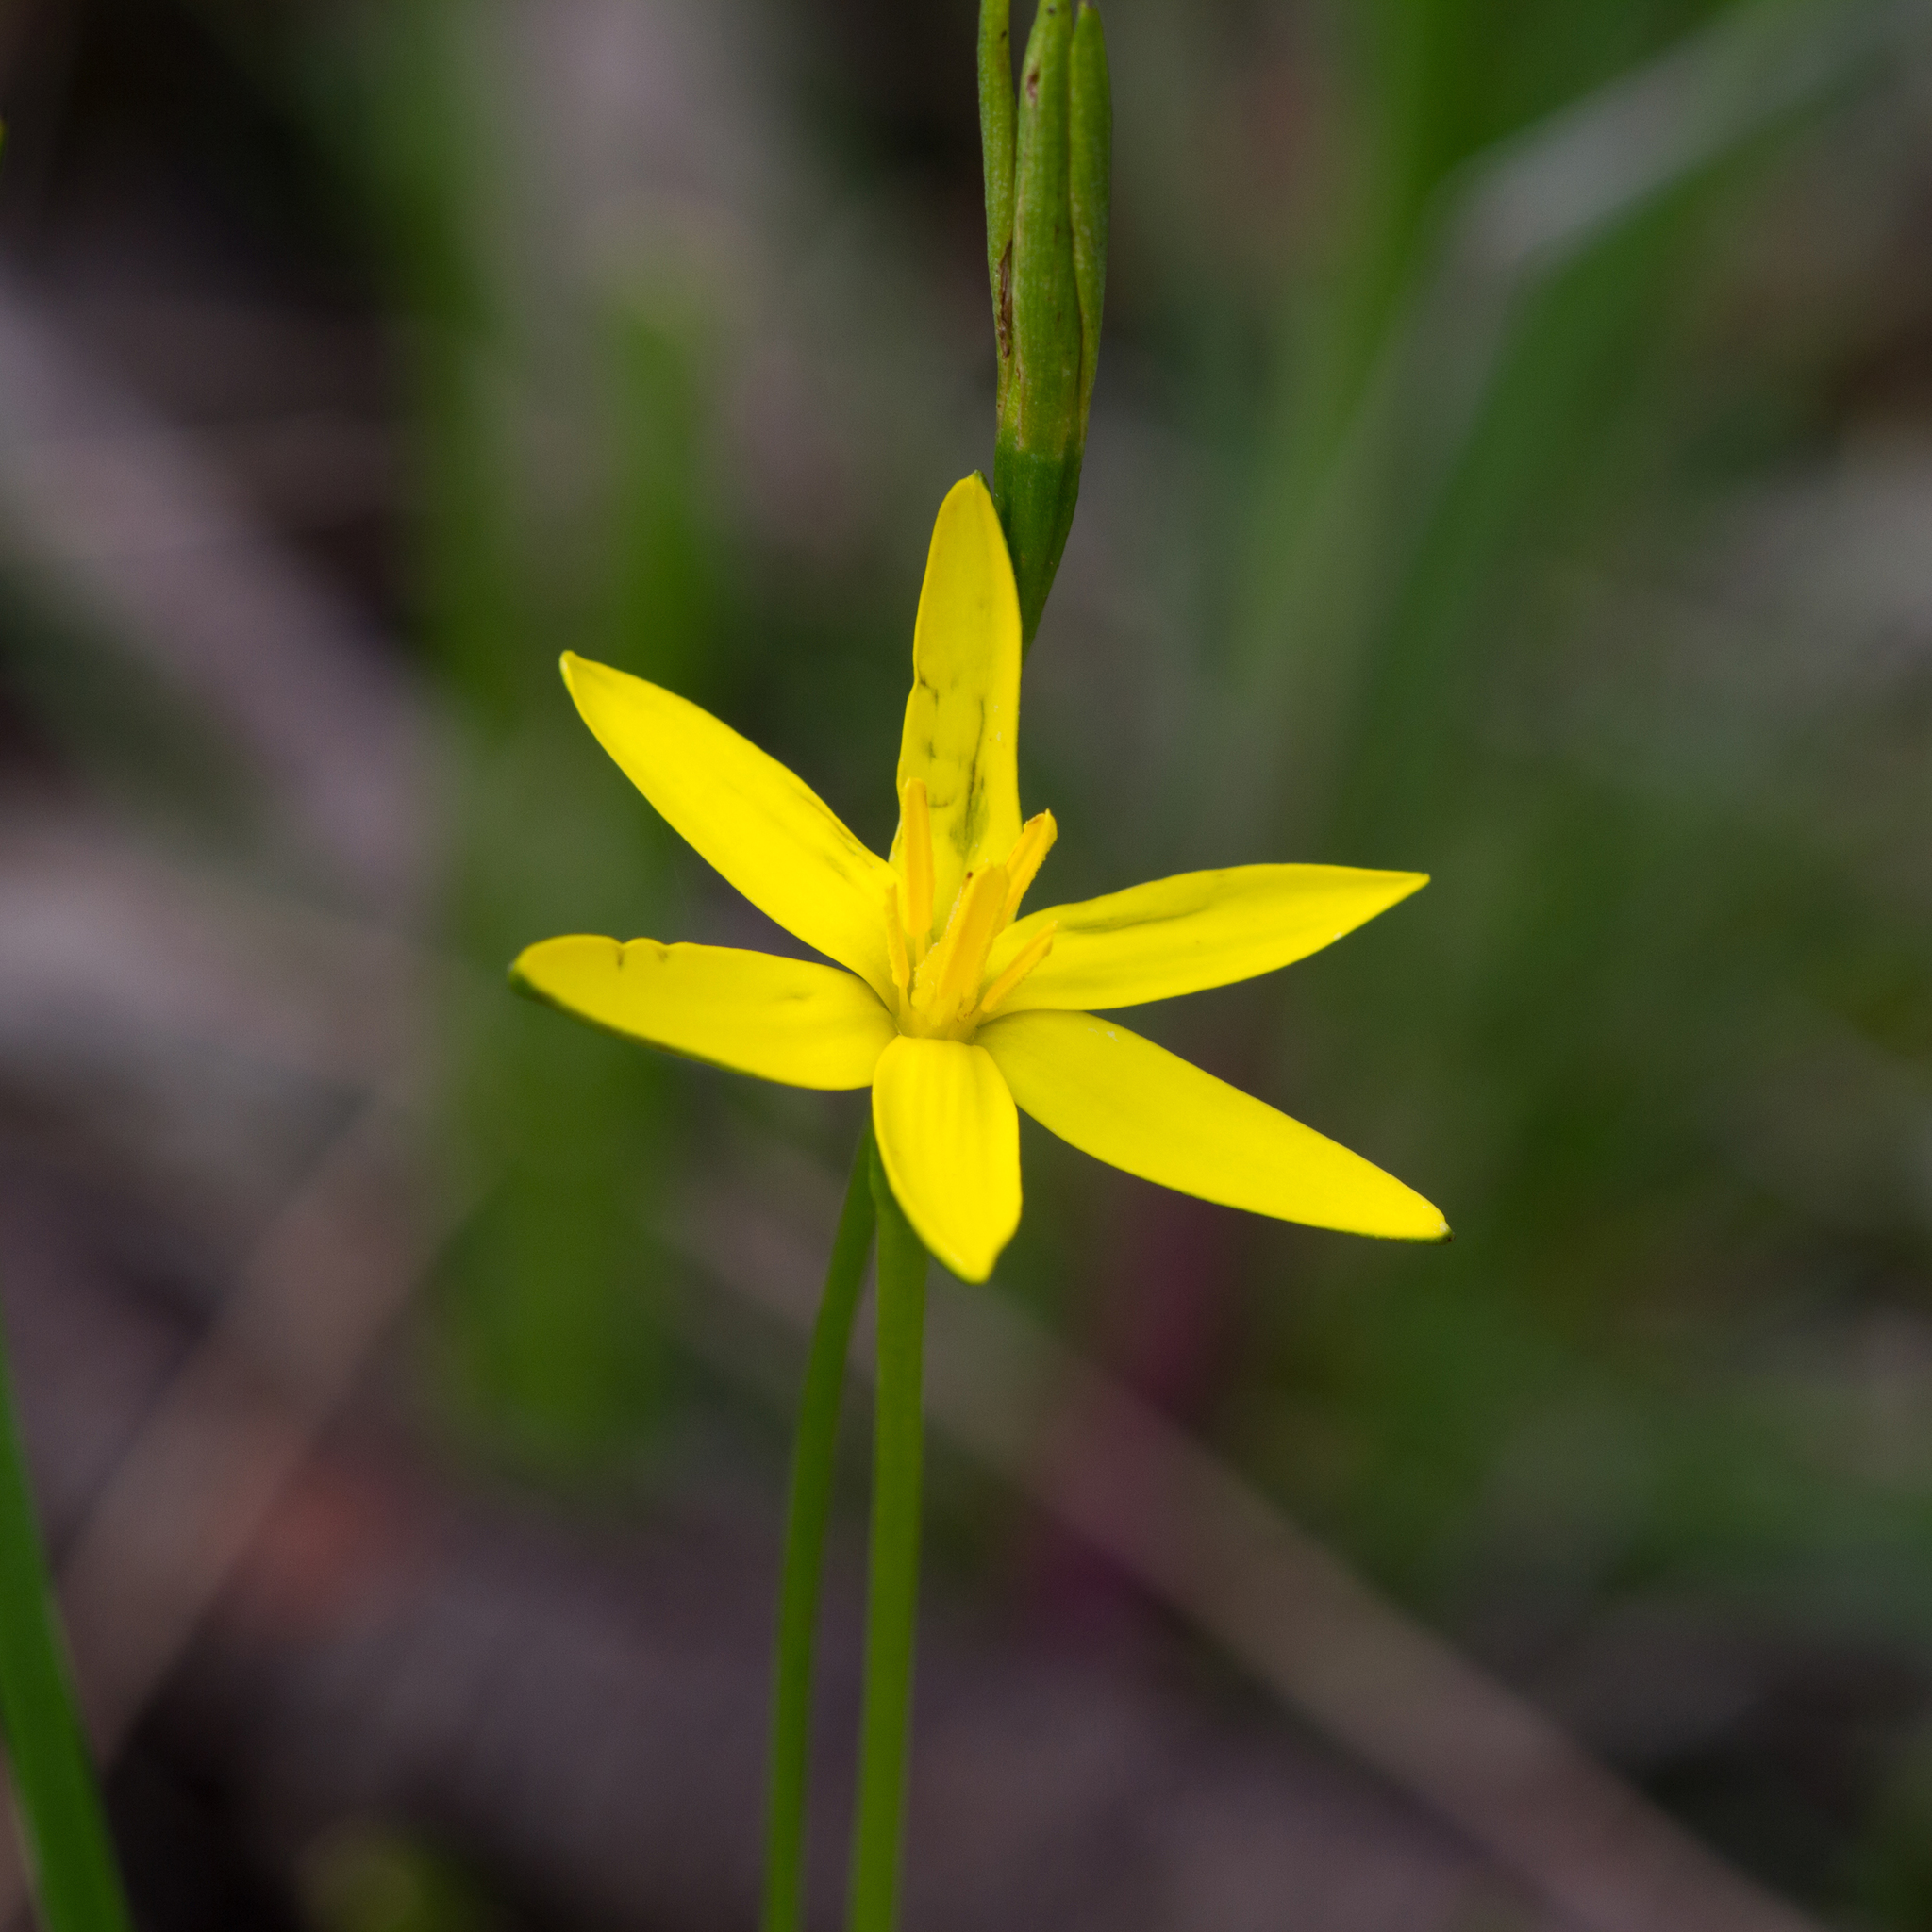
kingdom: Plantae
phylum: Tracheophyta
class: Liliopsida
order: Asparagales
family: Hypoxidaceae
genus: Pauridia
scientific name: Pauridia glabella
